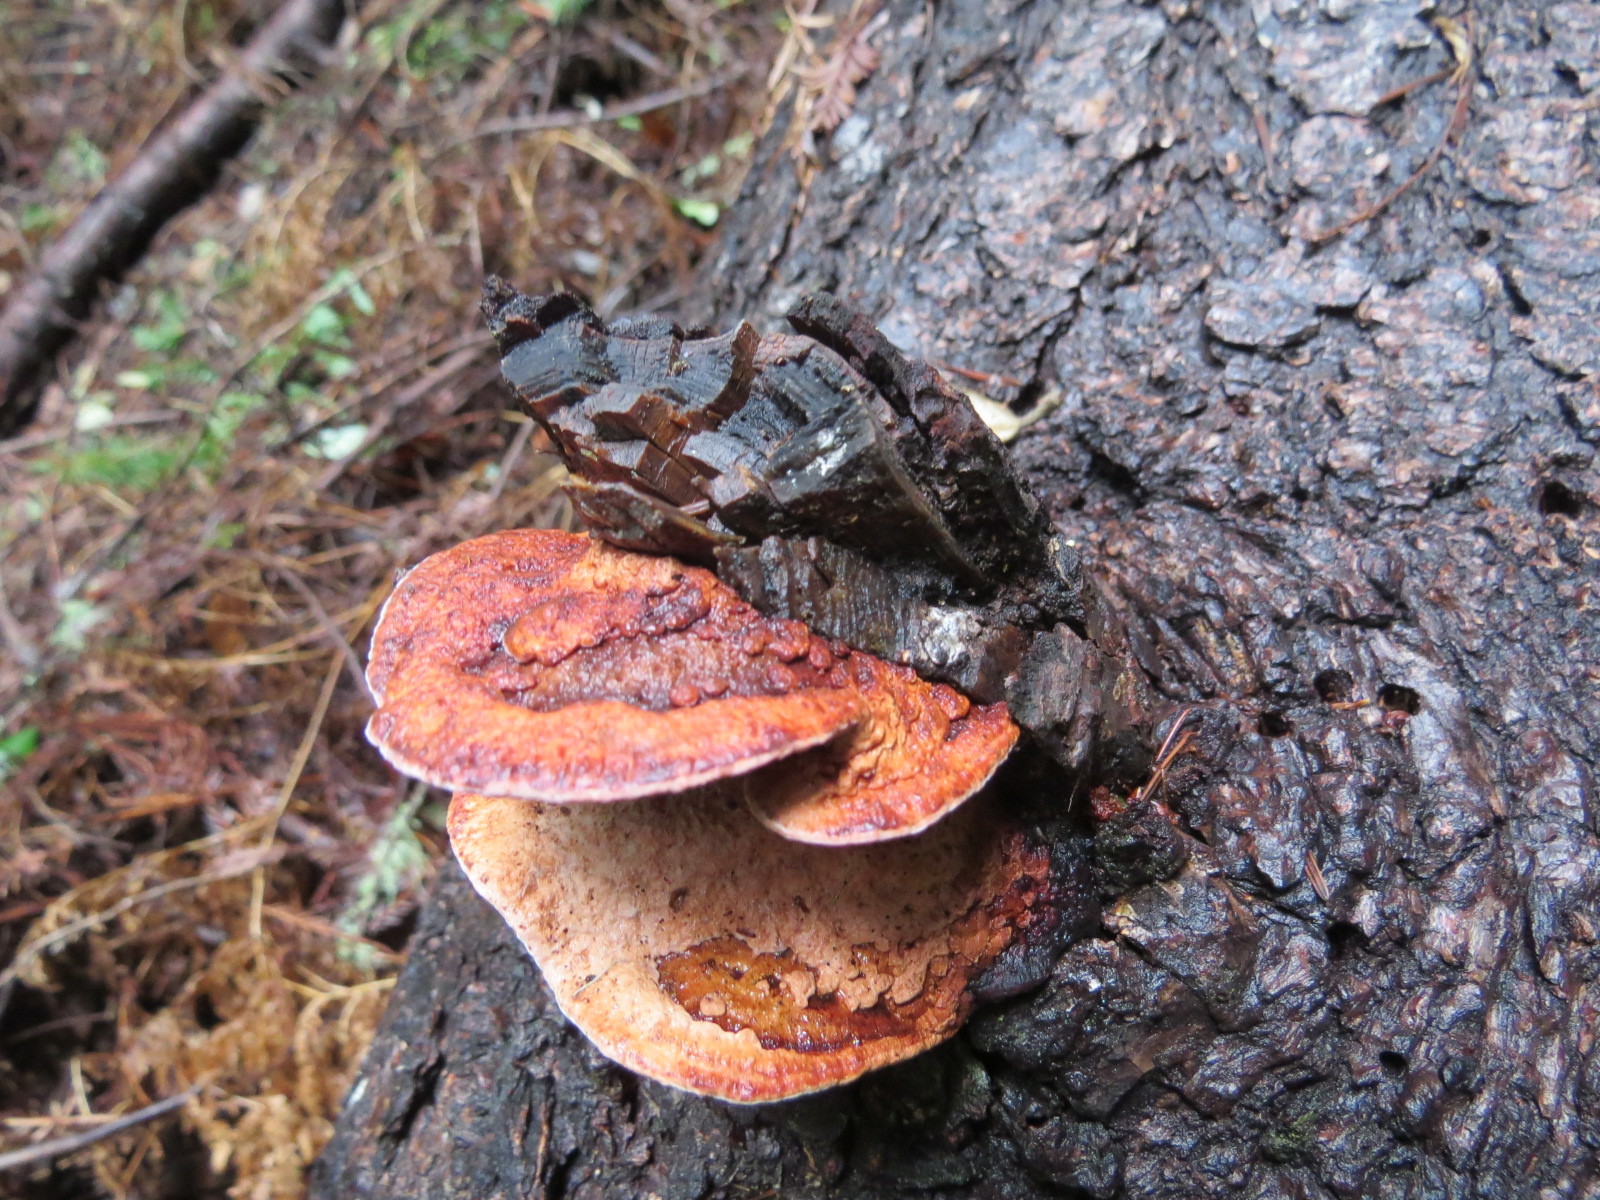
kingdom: Fungi
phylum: Basidiomycota
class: Agaricomycetes
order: Polyporales
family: Fomitopsidaceae
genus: Rhodofomes
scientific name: Rhodofomes cajanderi
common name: Rosy conk
